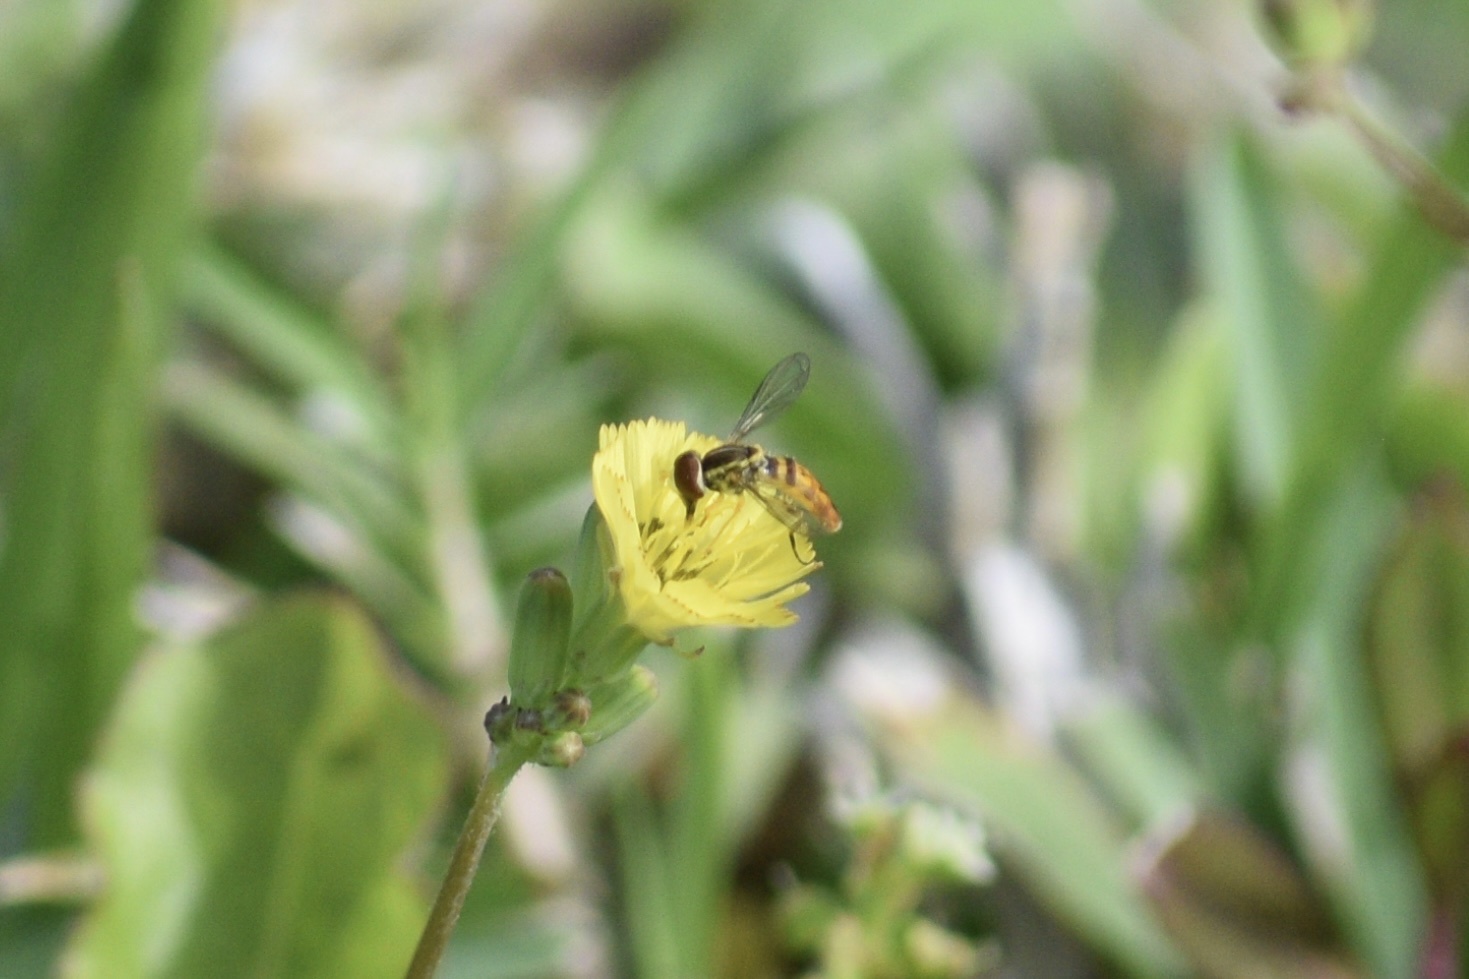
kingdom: Animalia
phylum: Arthropoda
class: Insecta
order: Diptera
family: Syrphidae
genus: Toxomerus
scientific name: Toxomerus floralis
